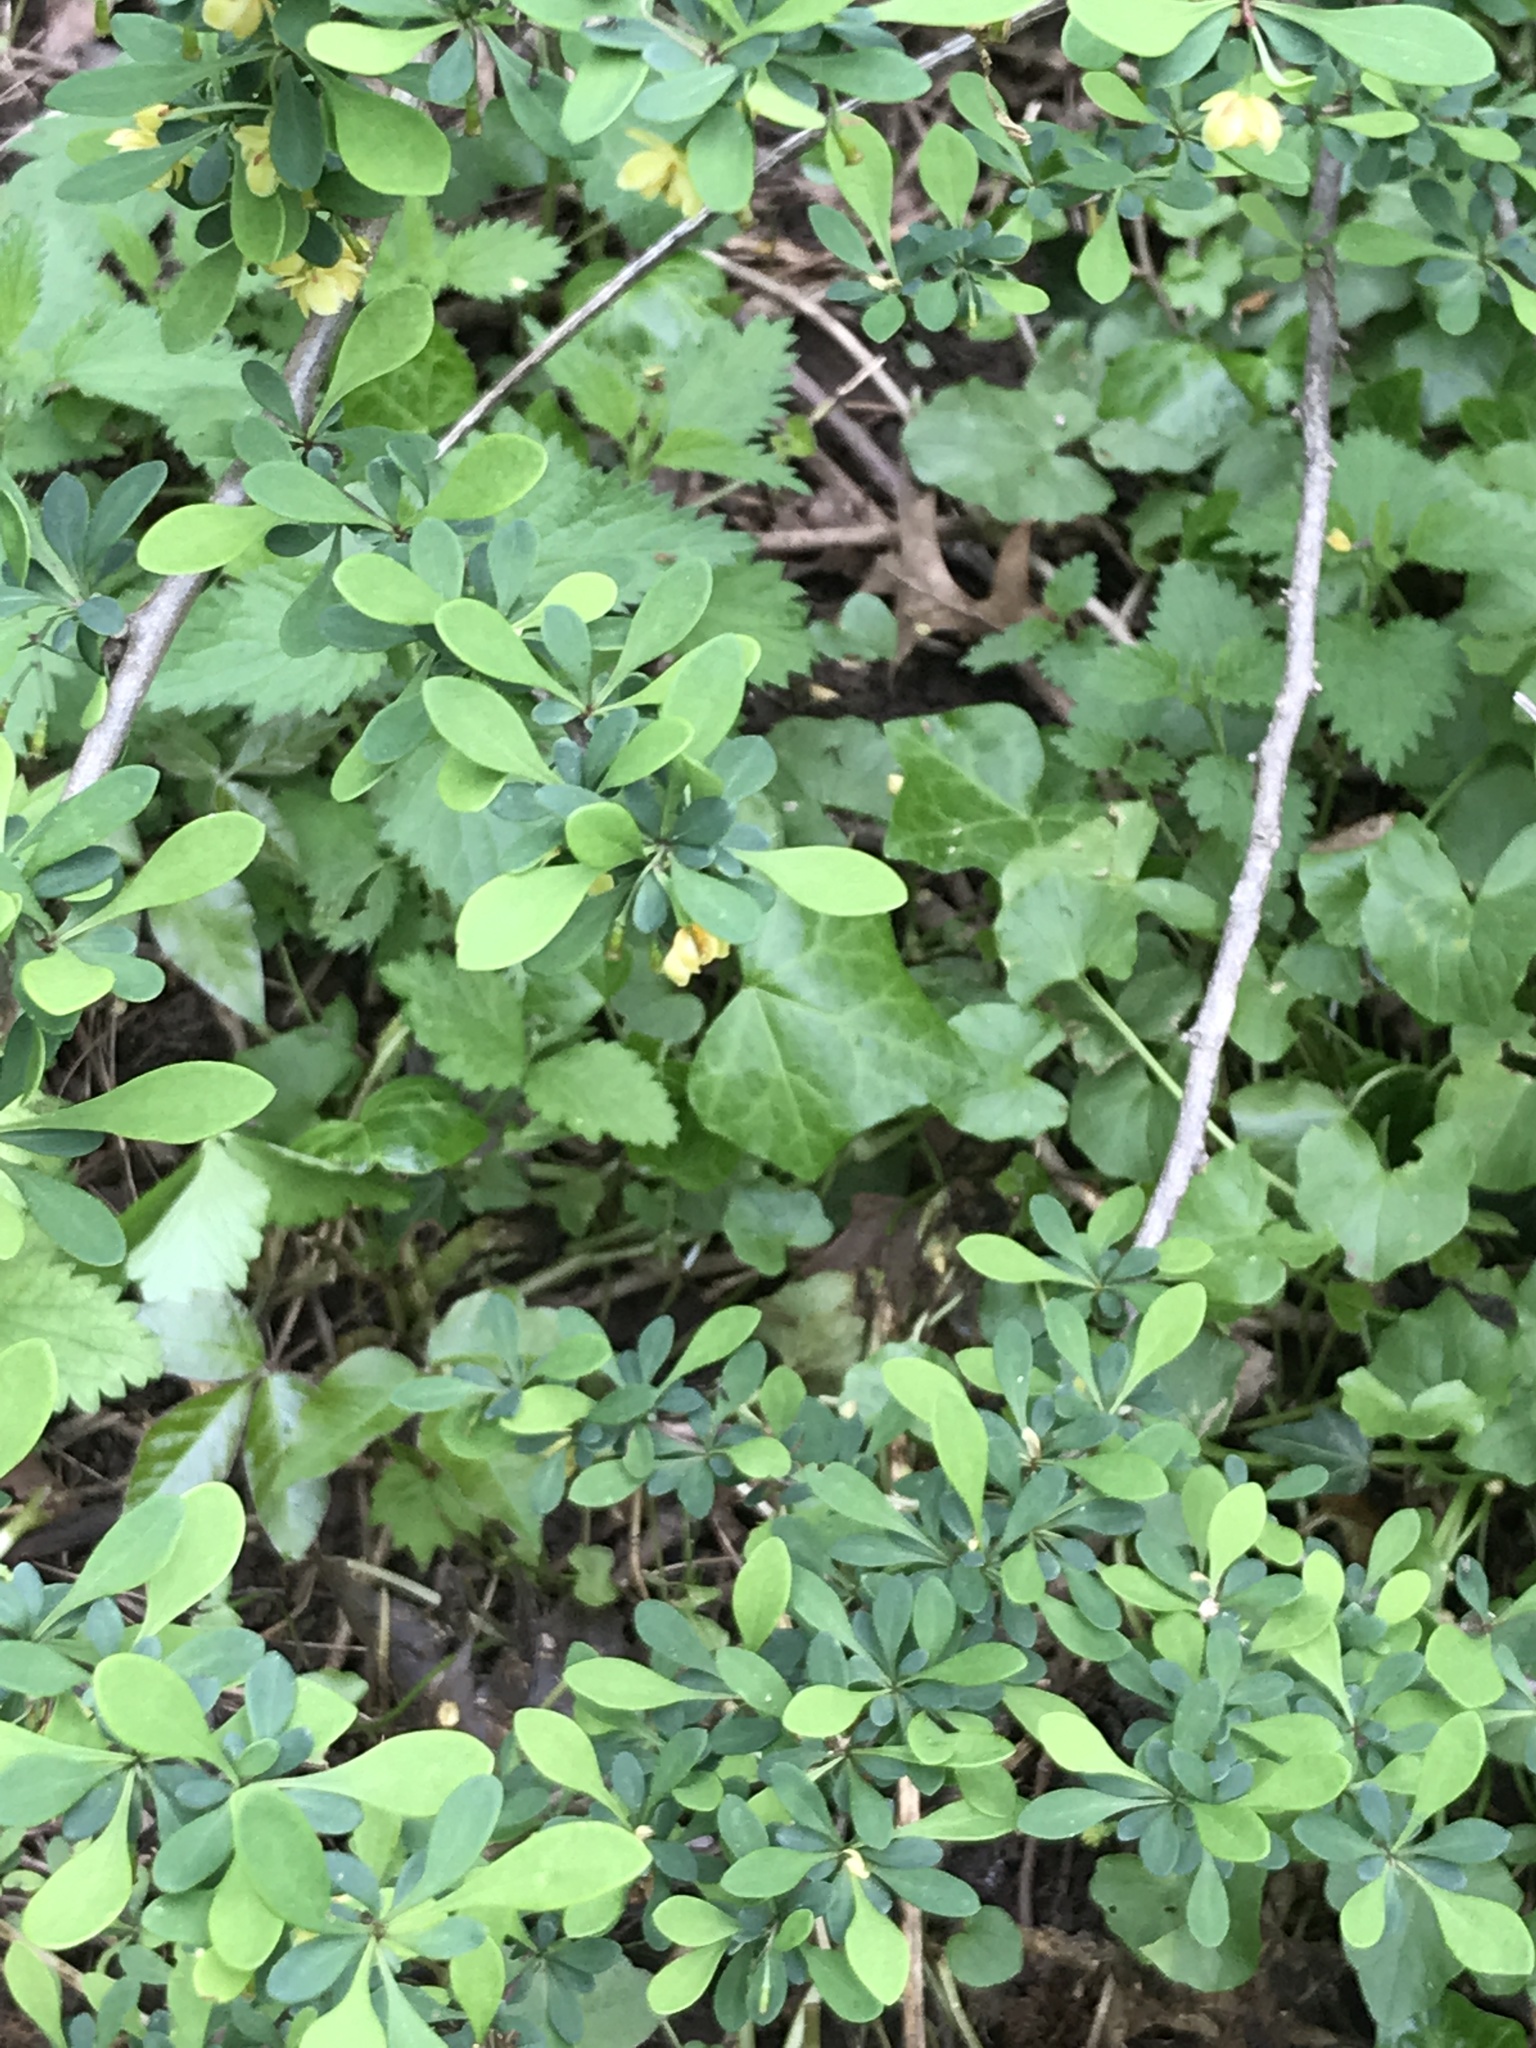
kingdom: Plantae
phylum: Tracheophyta
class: Magnoliopsida
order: Ranunculales
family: Berberidaceae
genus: Berberis
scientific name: Berberis thunbergii
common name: Japanese barberry
